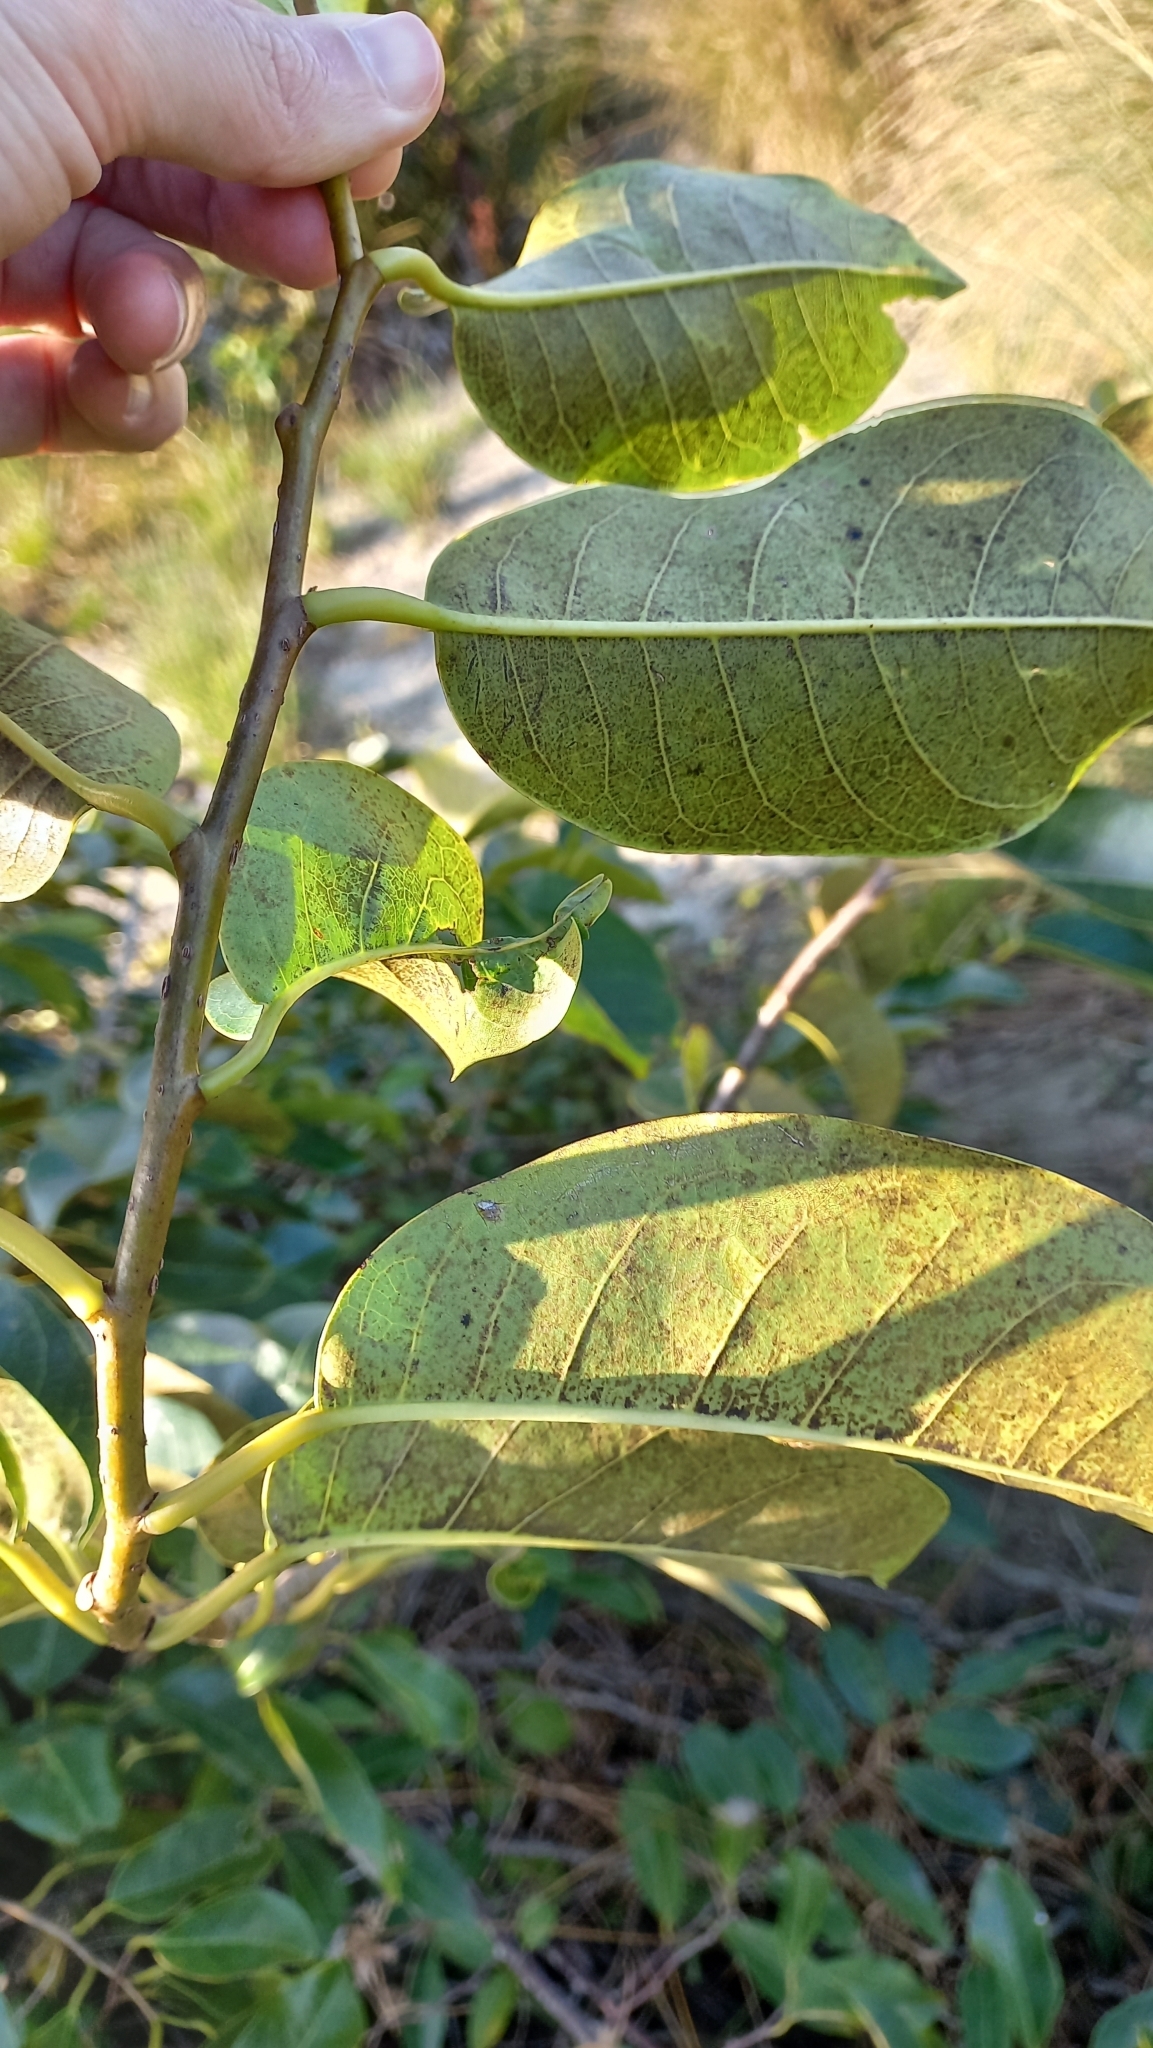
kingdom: Plantae
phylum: Tracheophyta
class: Magnoliopsida
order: Magnoliales
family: Annonaceae
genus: Annona
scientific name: Annona glabra
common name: Monkey apple
